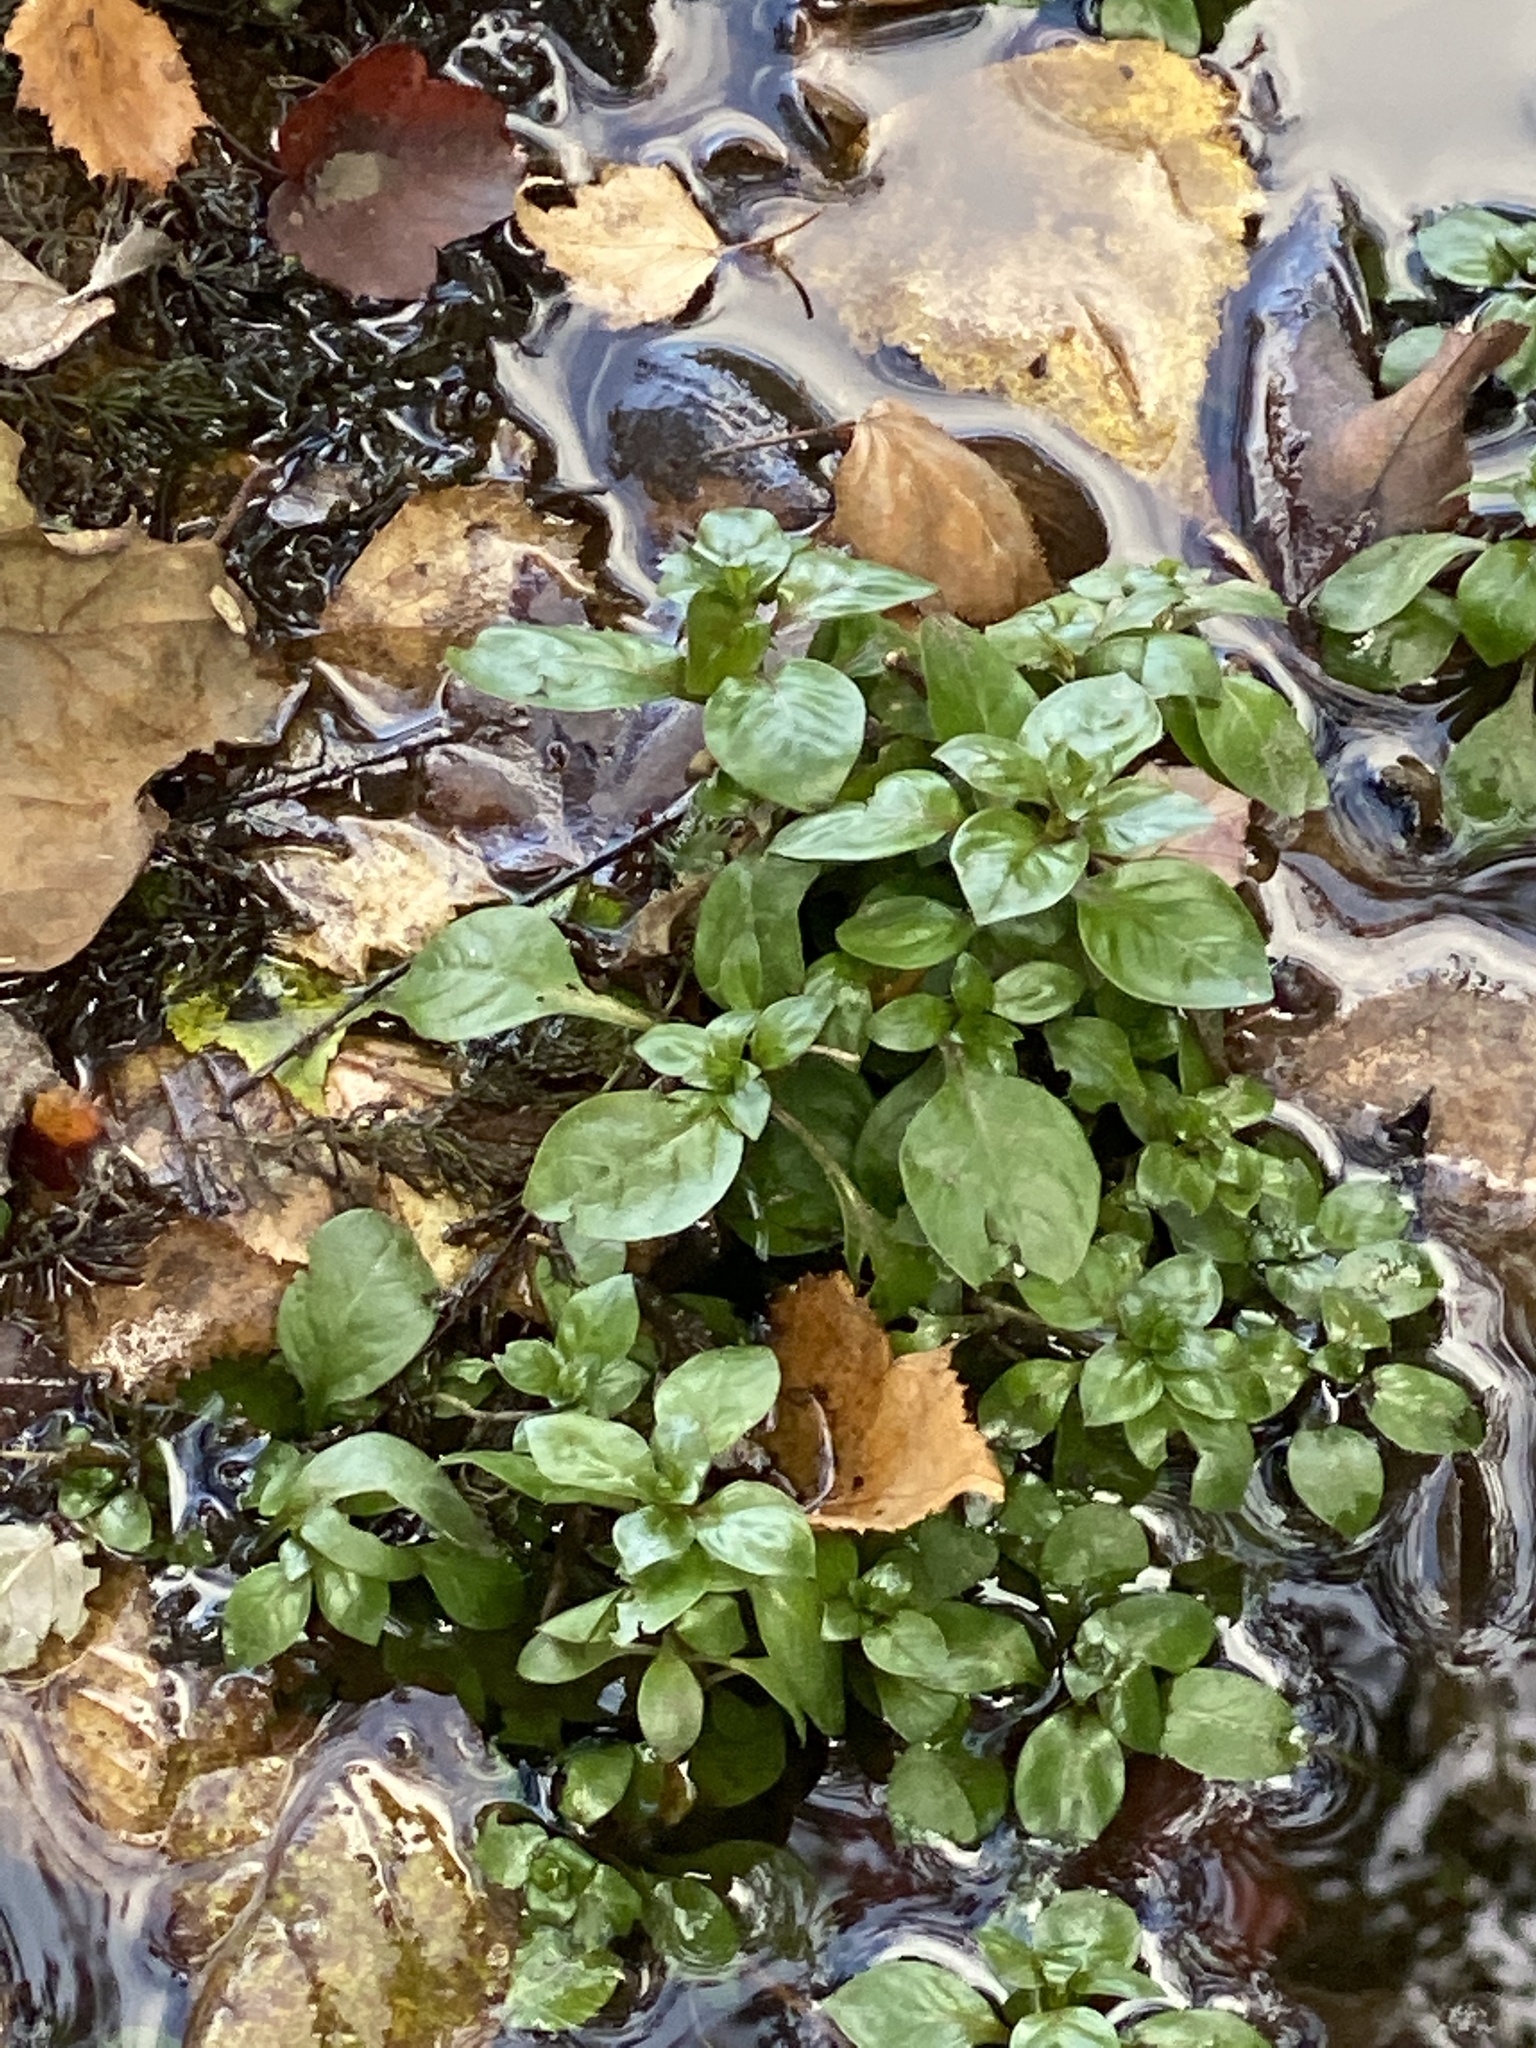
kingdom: Plantae
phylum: Tracheophyta
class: Magnoliopsida
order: Myrtales
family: Onagraceae
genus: Ludwigia
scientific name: Ludwigia palustris
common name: Hampshire-purslane
